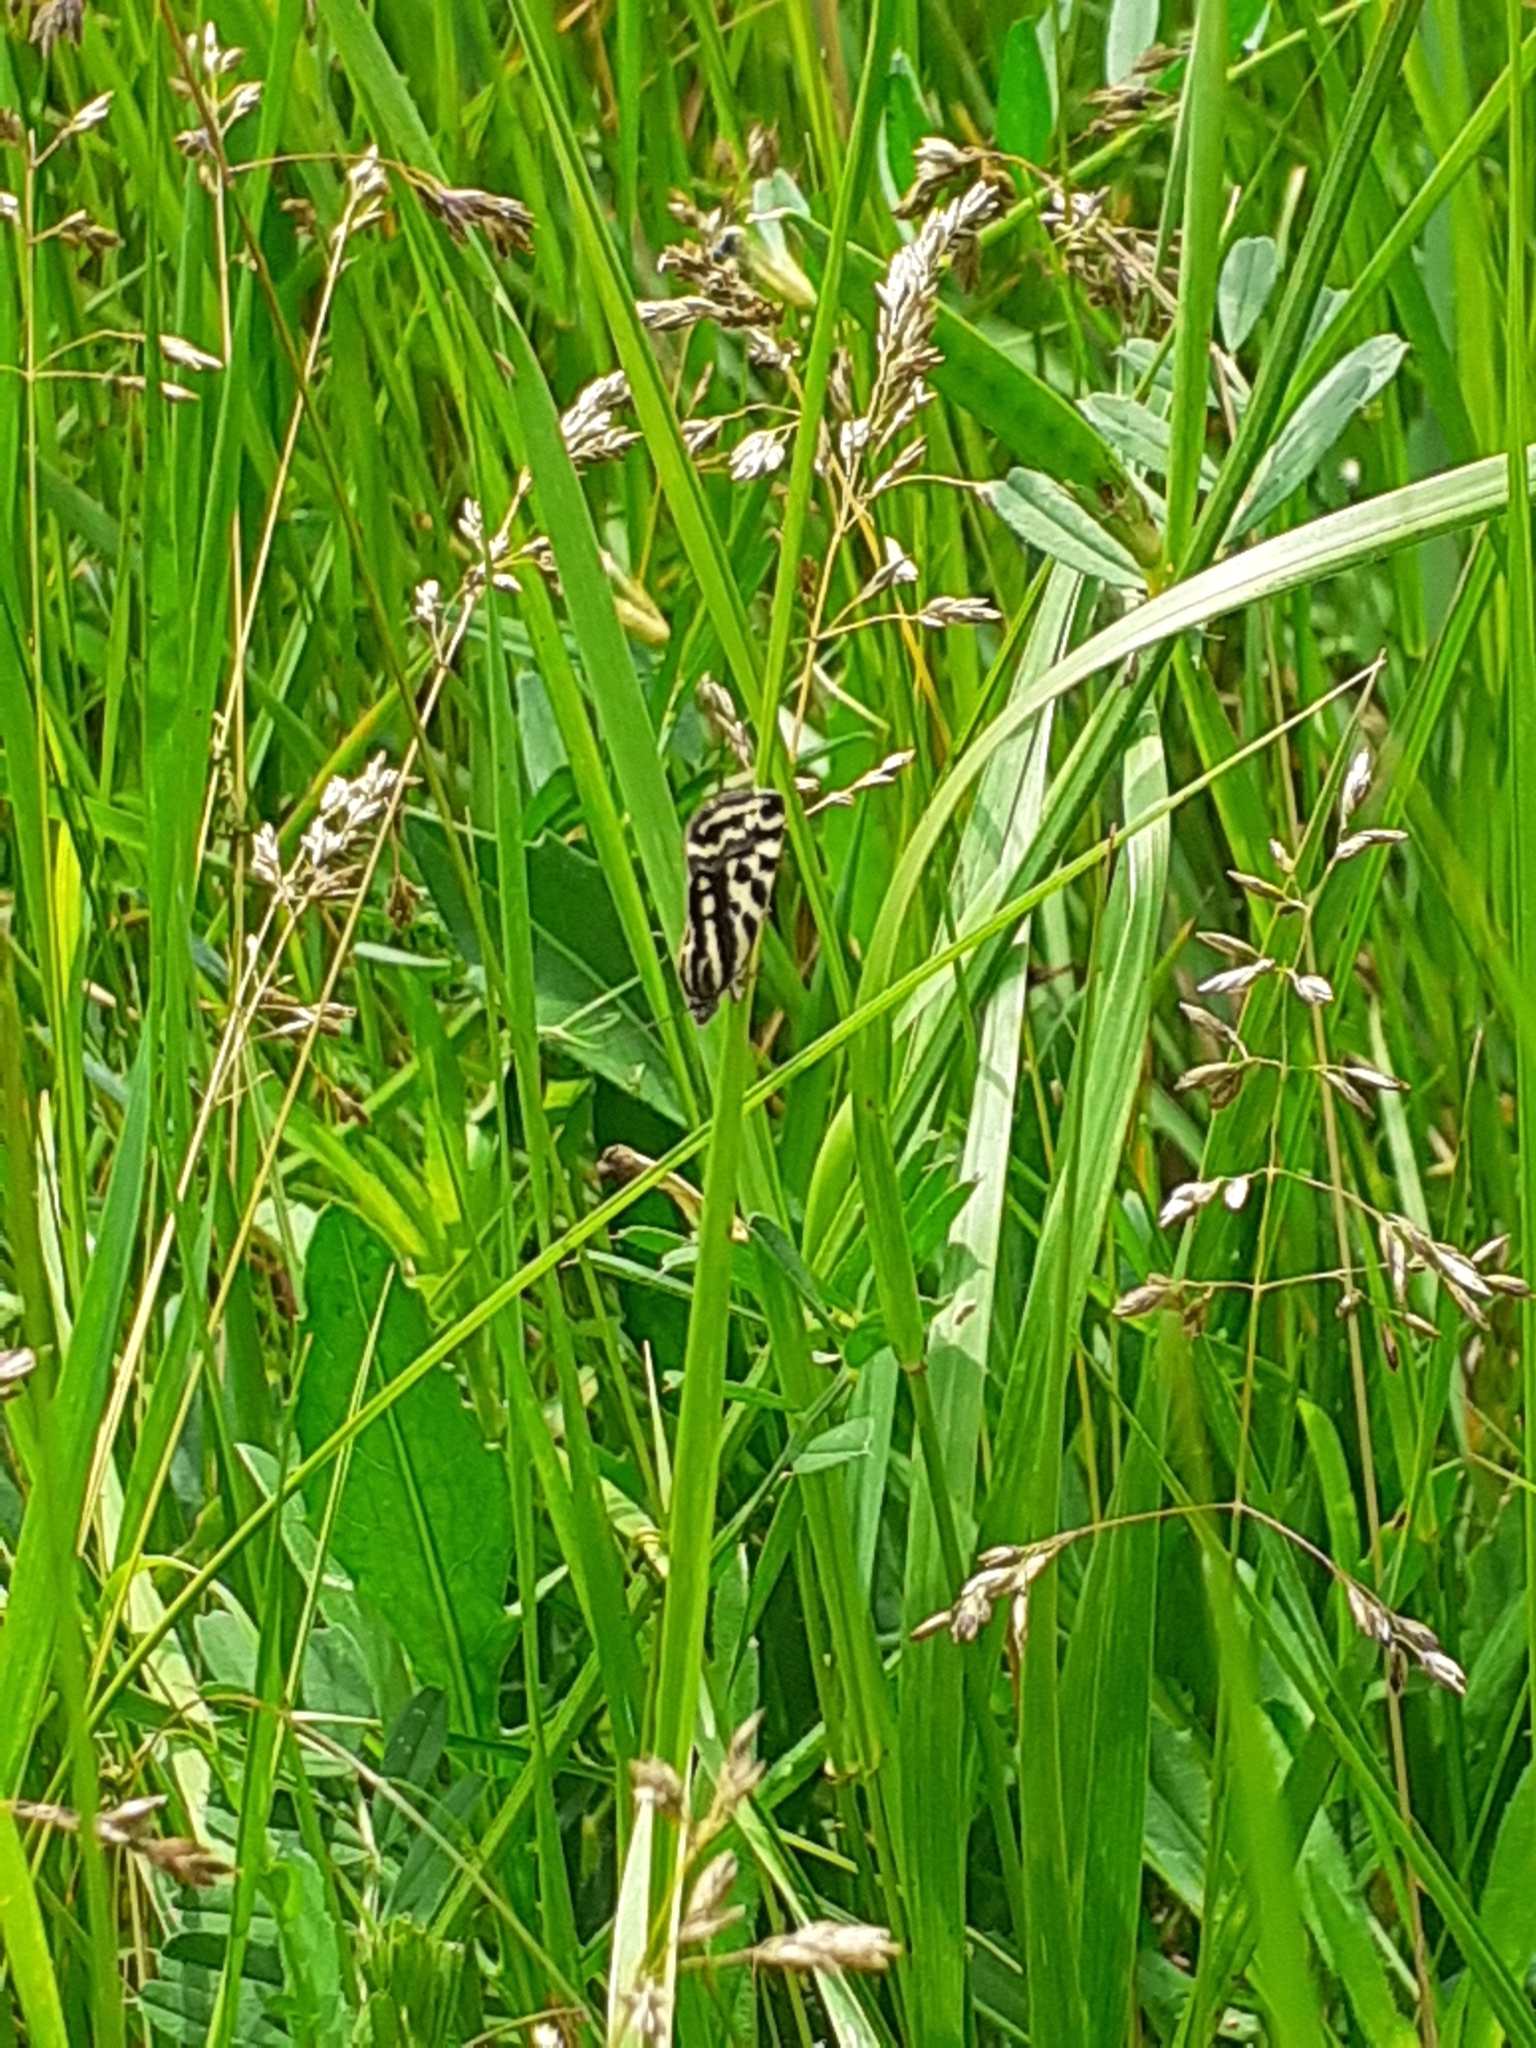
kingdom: Animalia
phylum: Arthropoda
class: Insecta
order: Lepidoptera
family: Noctuidae
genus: Acontia
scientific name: Acontia trabealis
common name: Spotted sulphur
